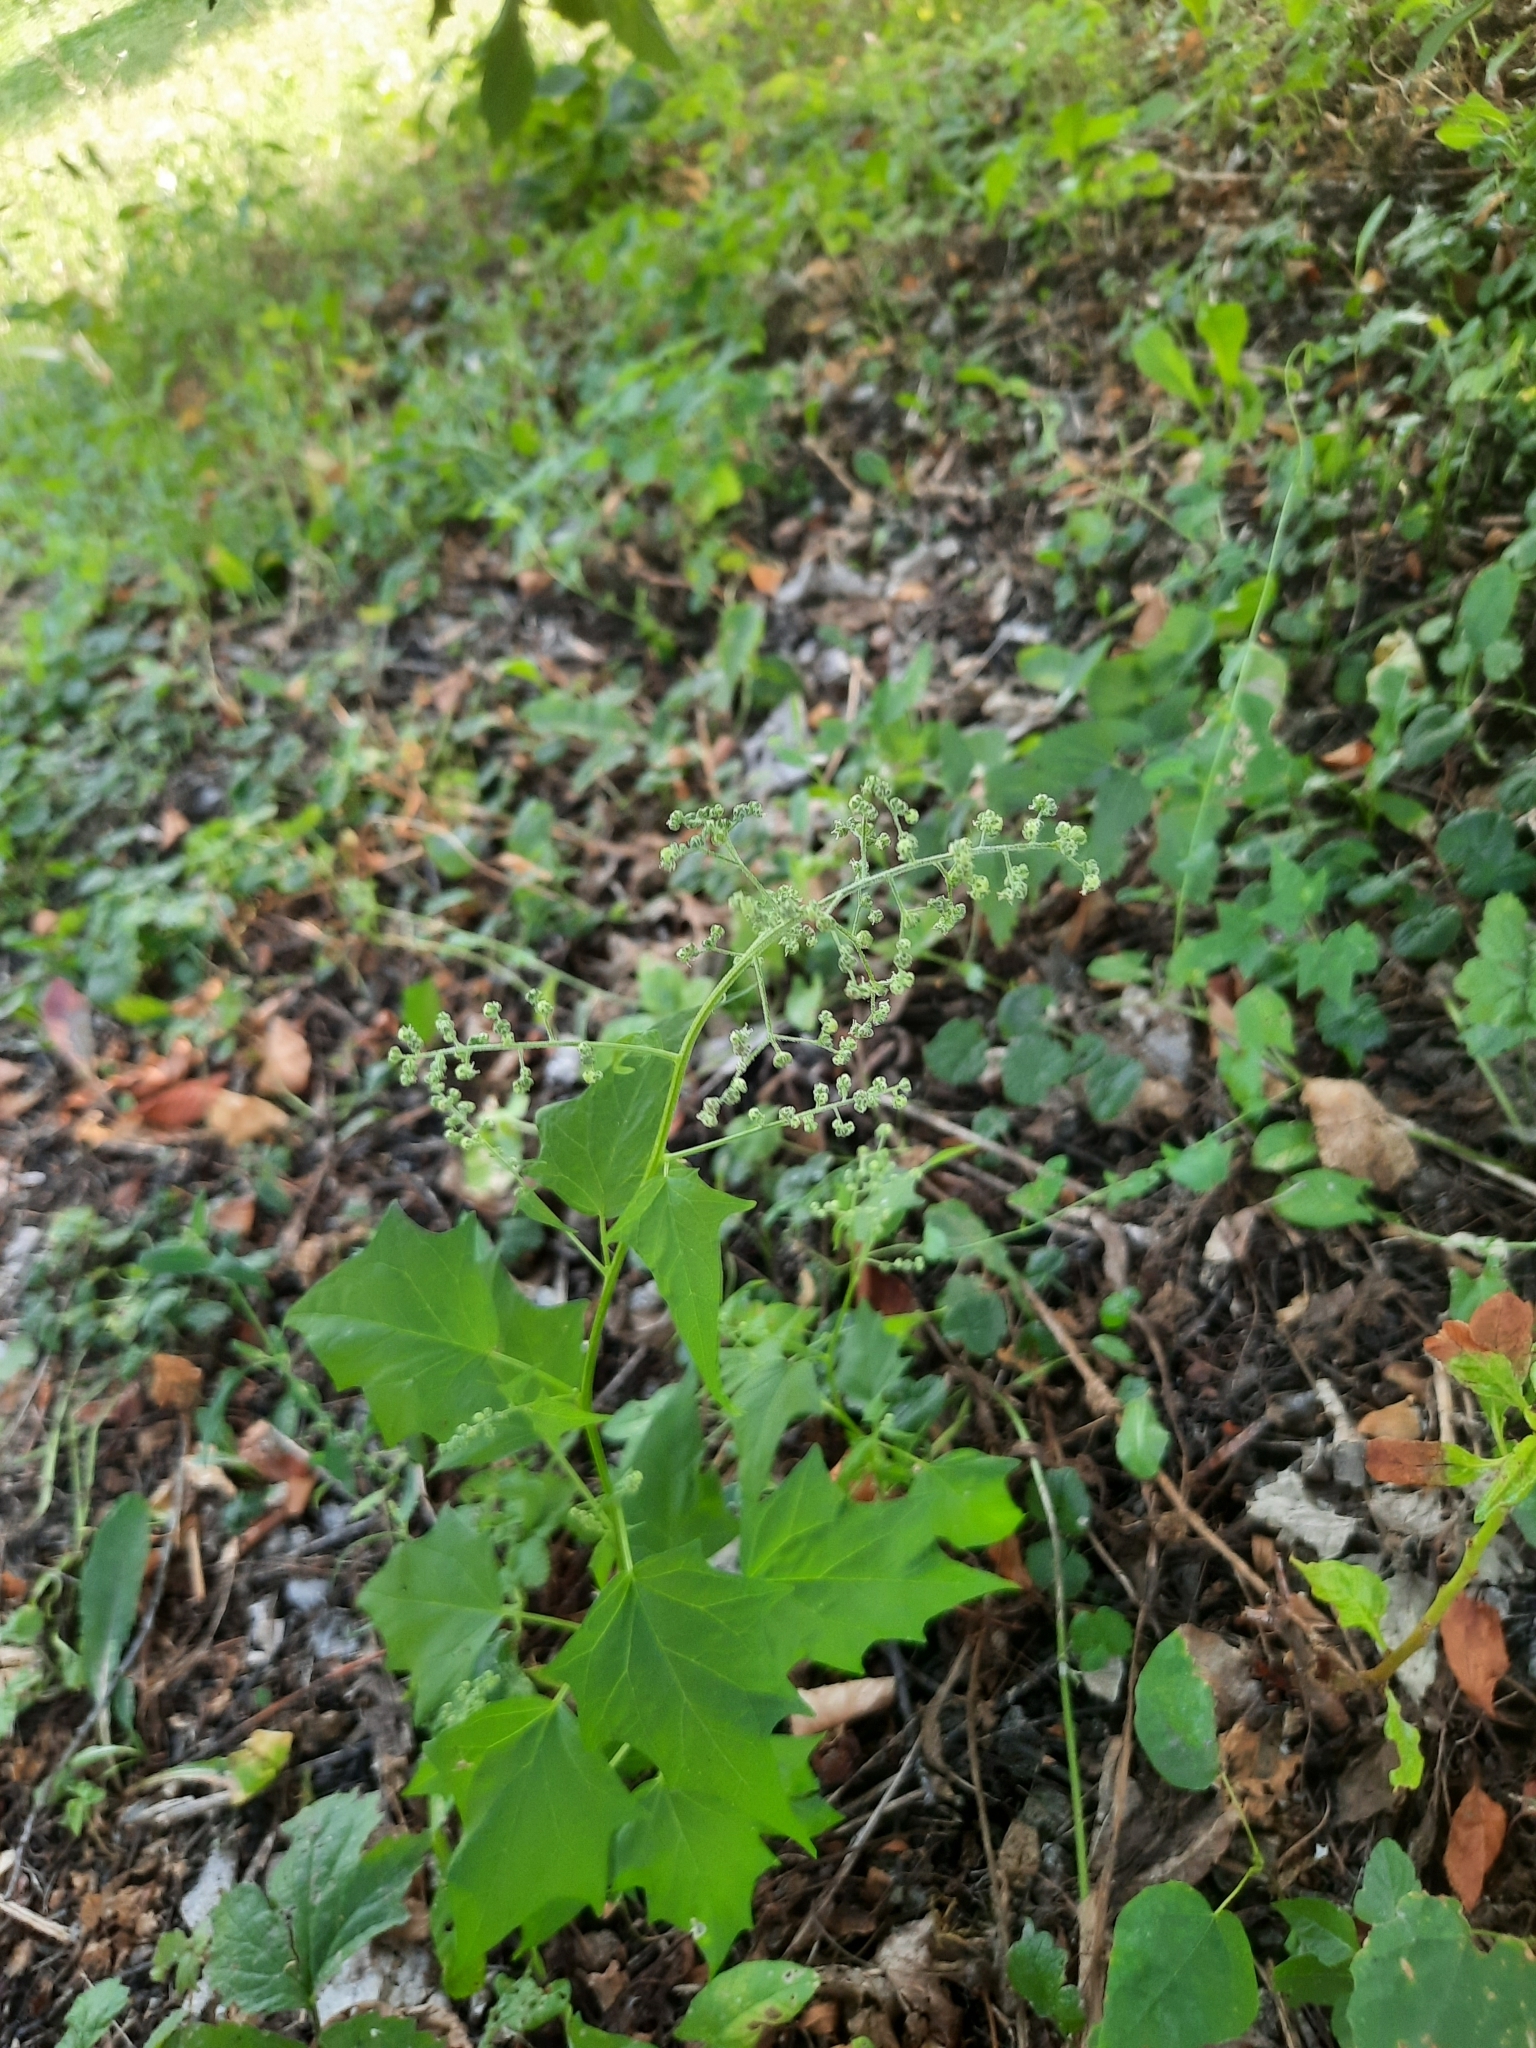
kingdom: Plantae
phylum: Tracheophyta
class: Magnoliopsida
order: Caryophyllales
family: Amaranthaceae
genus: Chenopodiastrum
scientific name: Chenopodiastrum hybridum
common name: Mapleleaf goosefoot
